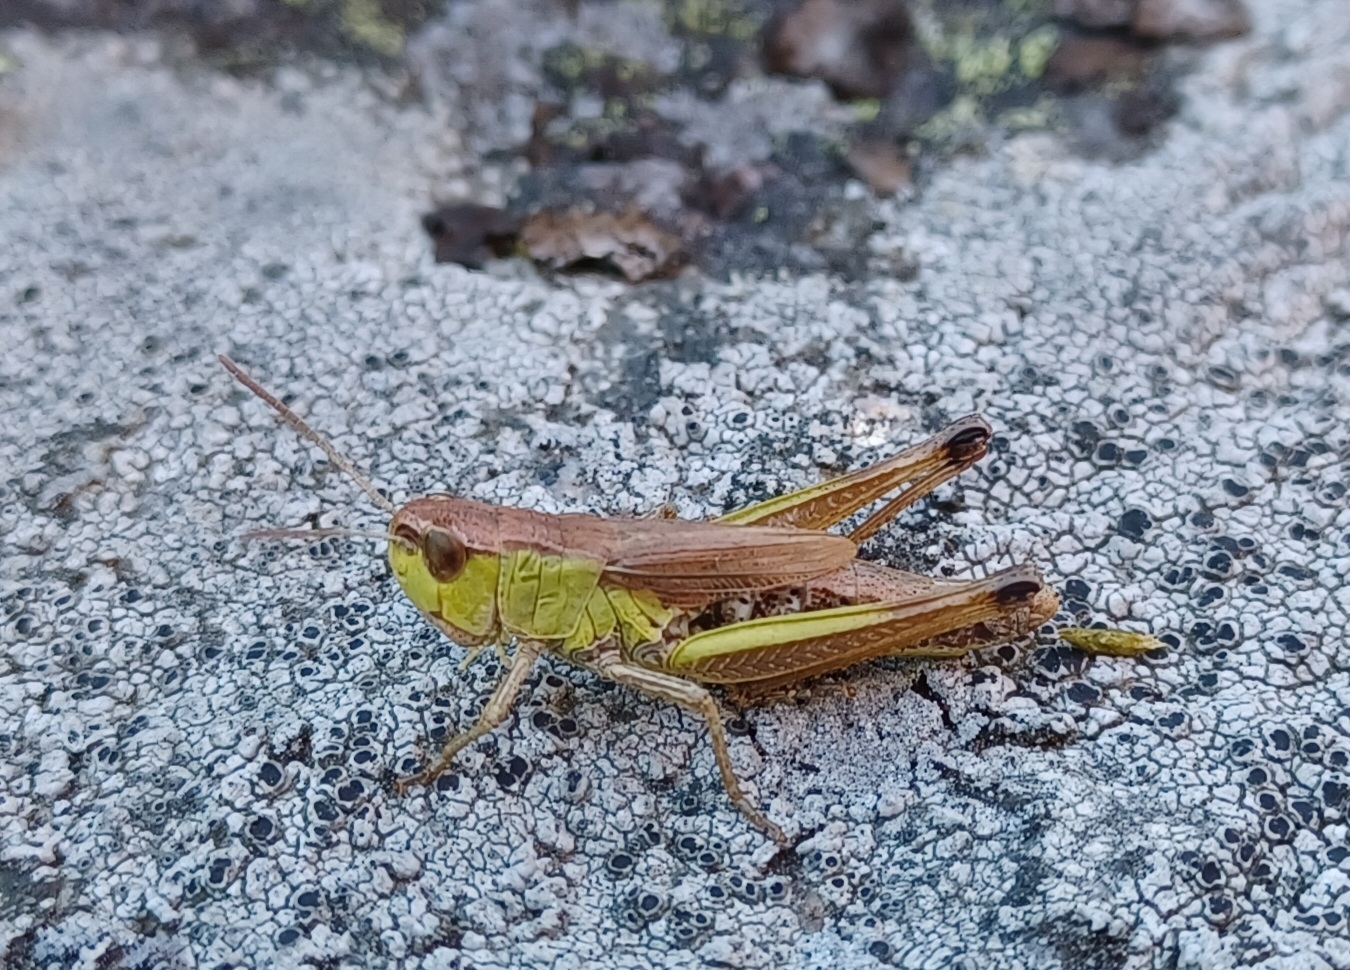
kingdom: Animalia
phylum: Arthropoda
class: Insecta
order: Orthoptera
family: Acrididae
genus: Pseudochorthippus
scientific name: Pseudochorthippus parallelus
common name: Meadow grasshopper
